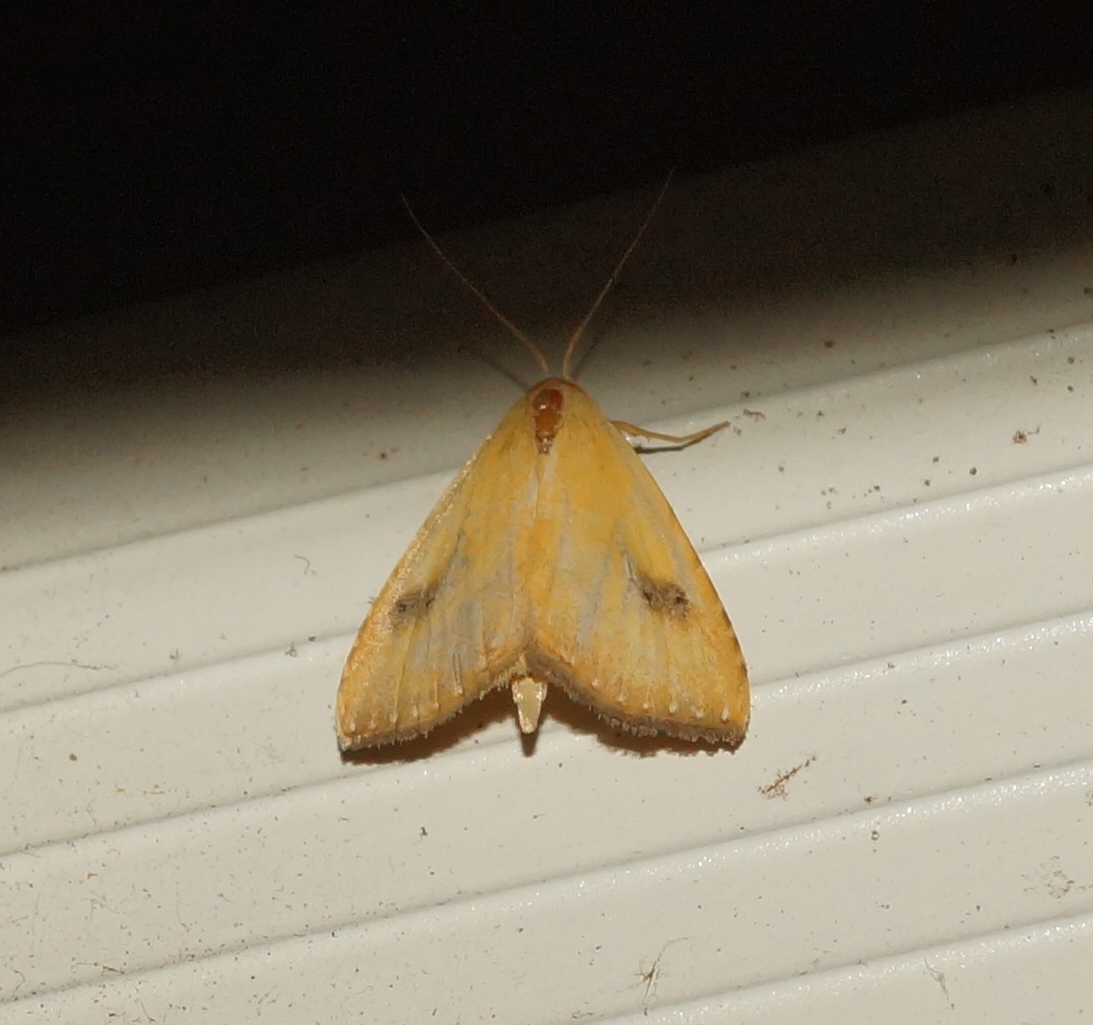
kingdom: Animalia
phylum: Arthropoda
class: Insecta
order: Lepidoptera
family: Erebidae
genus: Rivula
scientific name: Rivula sericealis
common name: Straw dot
